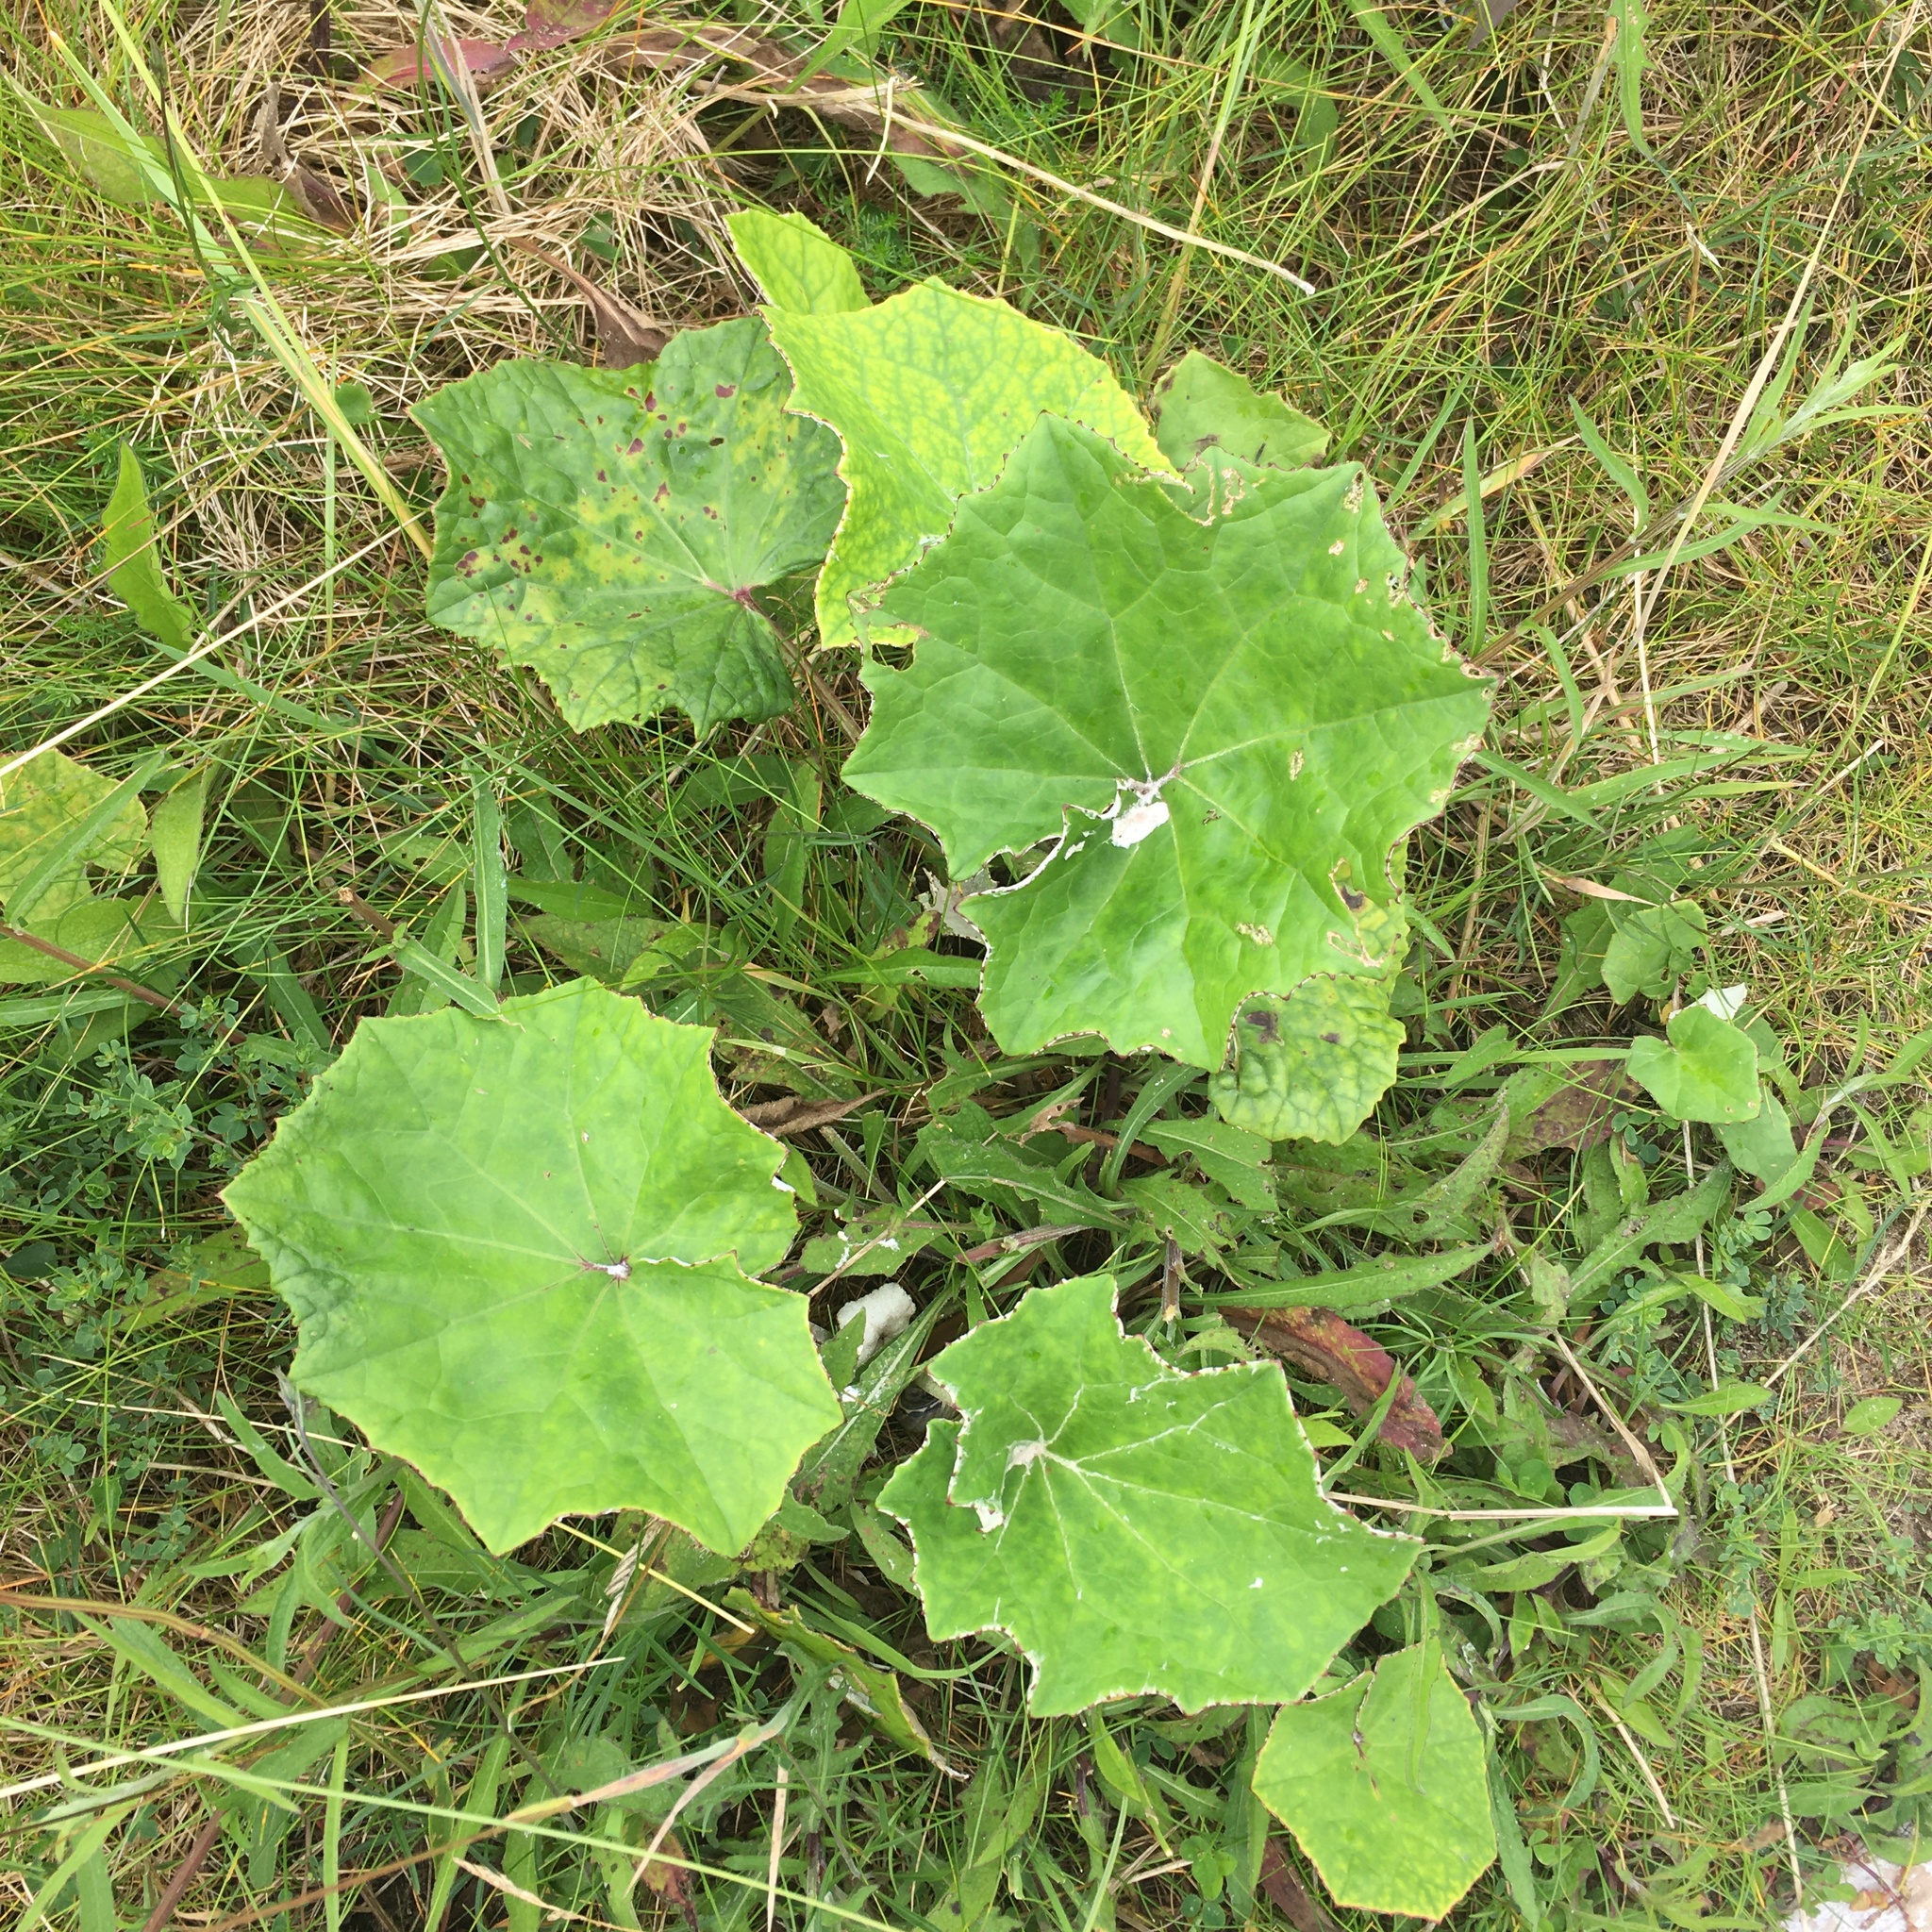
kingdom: Plantae
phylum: Tracheophyta
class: Magnoliopsida
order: Asterales
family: Asteraceae
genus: Tussilago
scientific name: Tussilago farfara
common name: Coltsfoot
